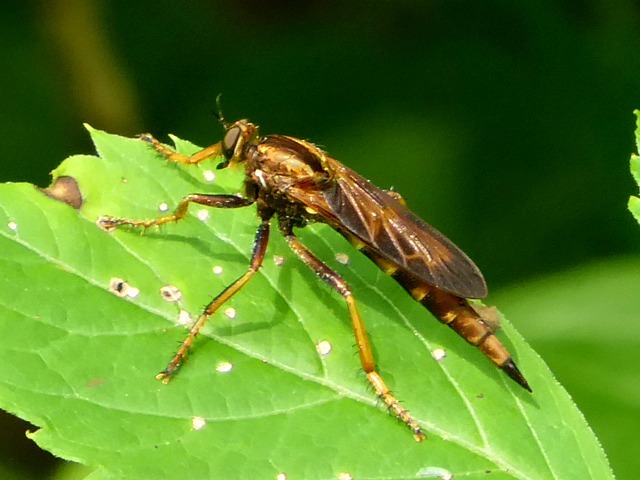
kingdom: Animalia
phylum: Arthropoda
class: Insecta
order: Diptera
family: Asilidae
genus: Asilus
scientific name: Asilus sericeus
